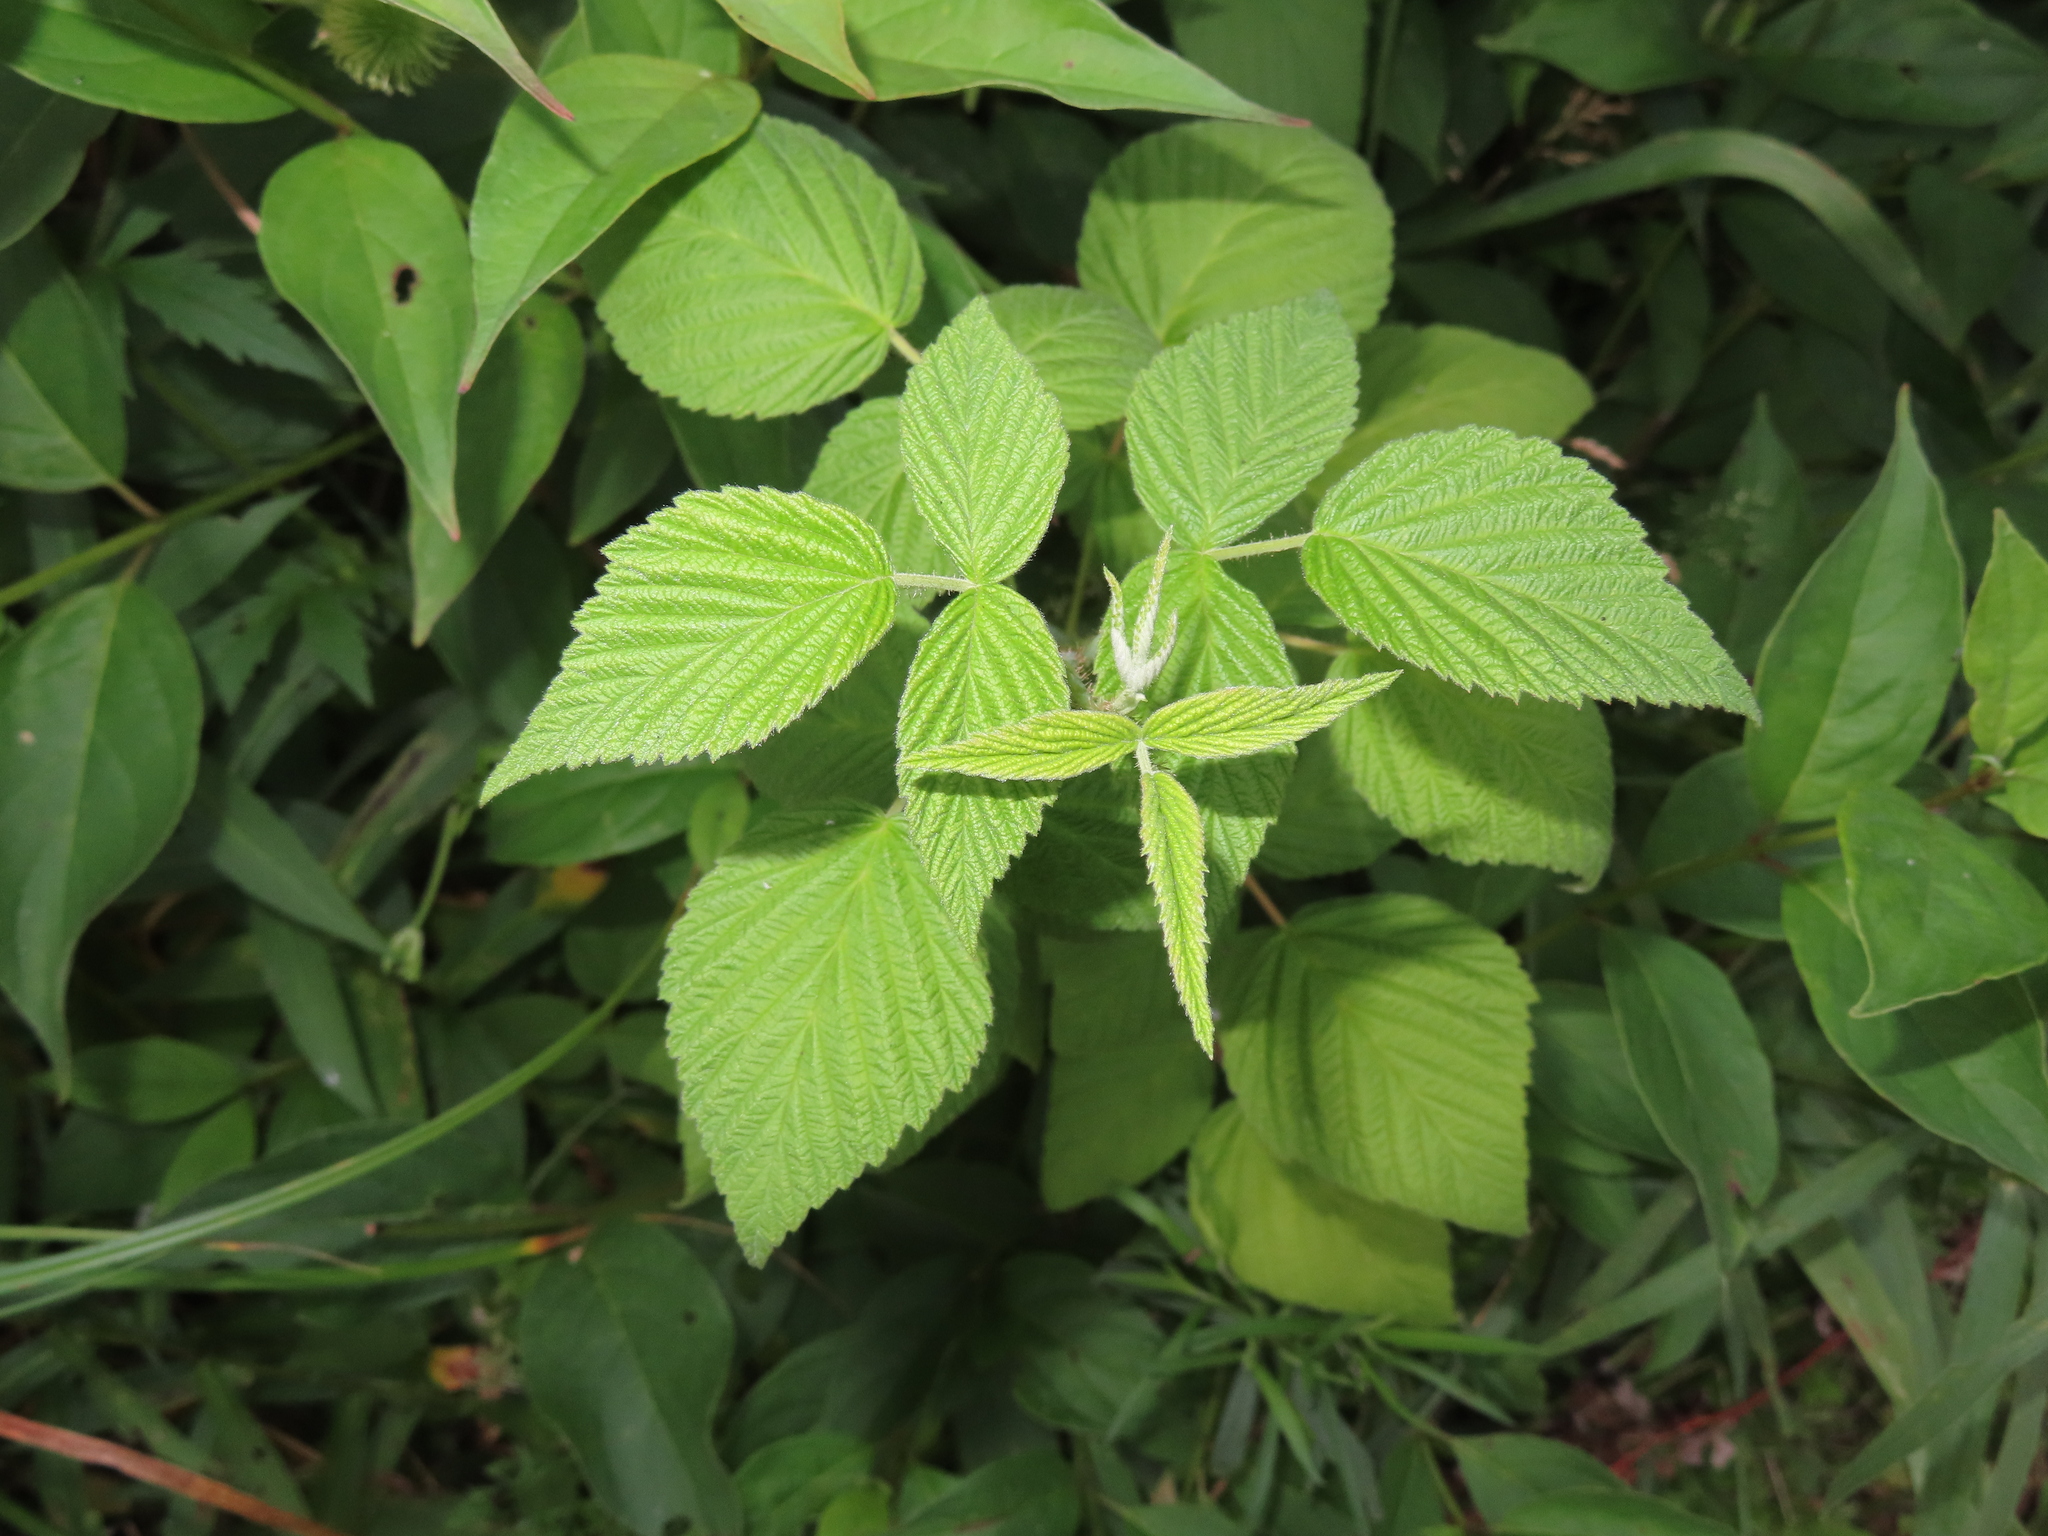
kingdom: Plantae
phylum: Tracheophyta
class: Magnoliopsida
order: Rosales
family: Rosaceae
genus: Rubus
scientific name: Rubus idaeus
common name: Raspberry
